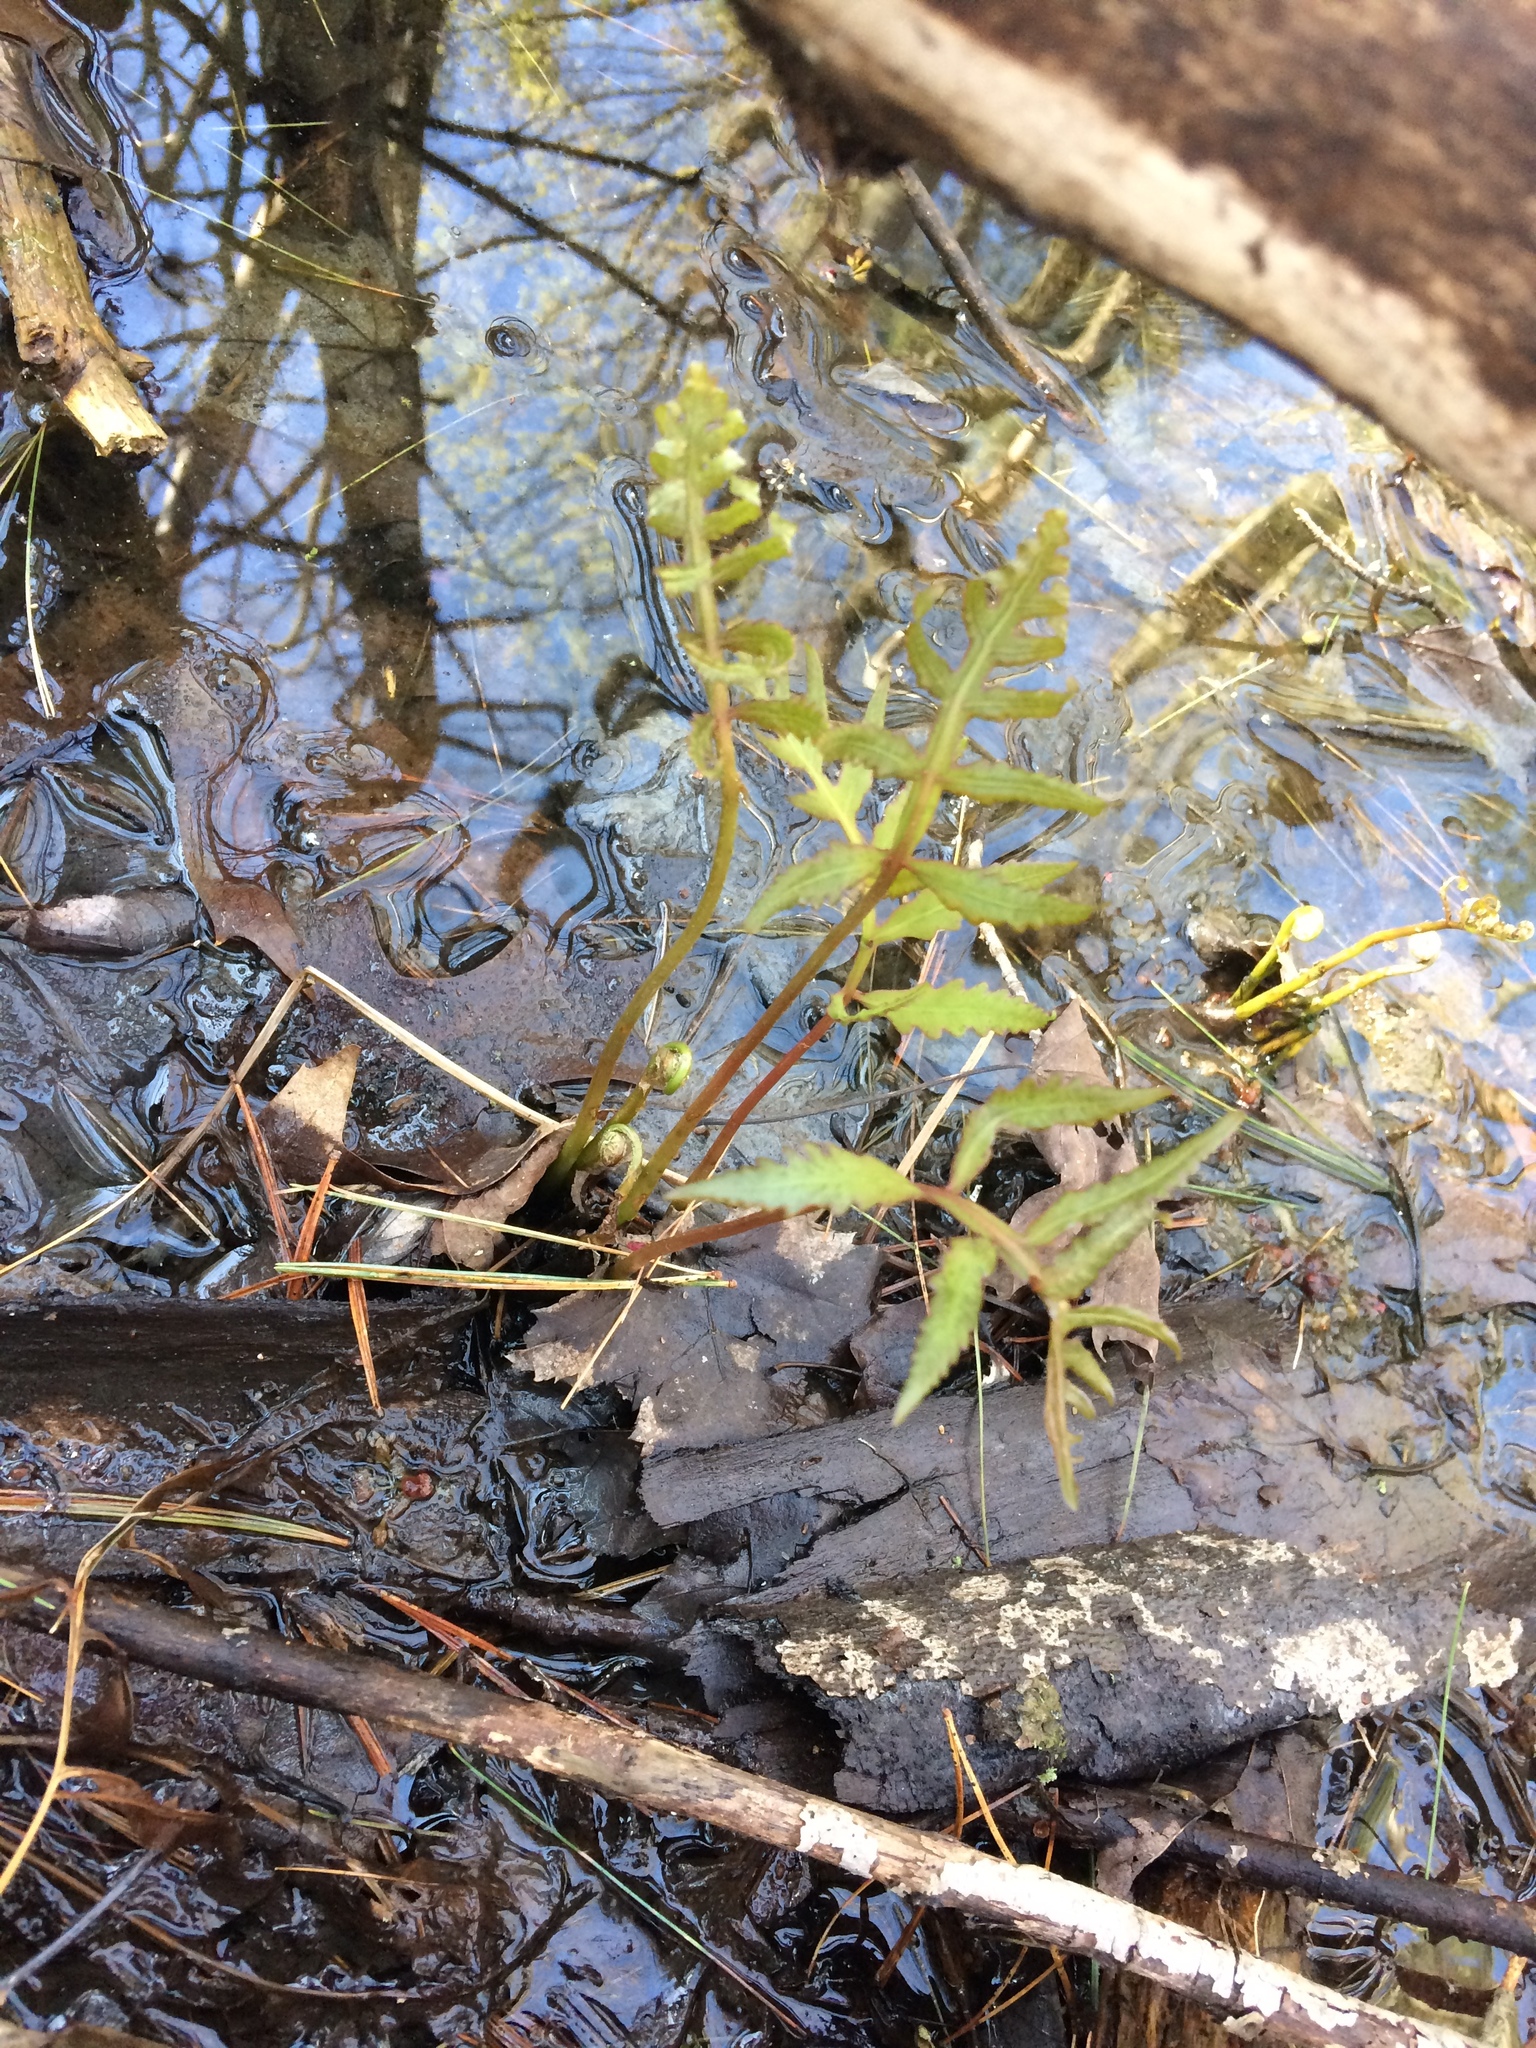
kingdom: Plantae
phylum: Tracheophyta
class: Polypodiopsida
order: Polypodiales
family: Onocleaceae
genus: Onoclea
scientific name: Onoclea sensibilis
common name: Sensitive fern
